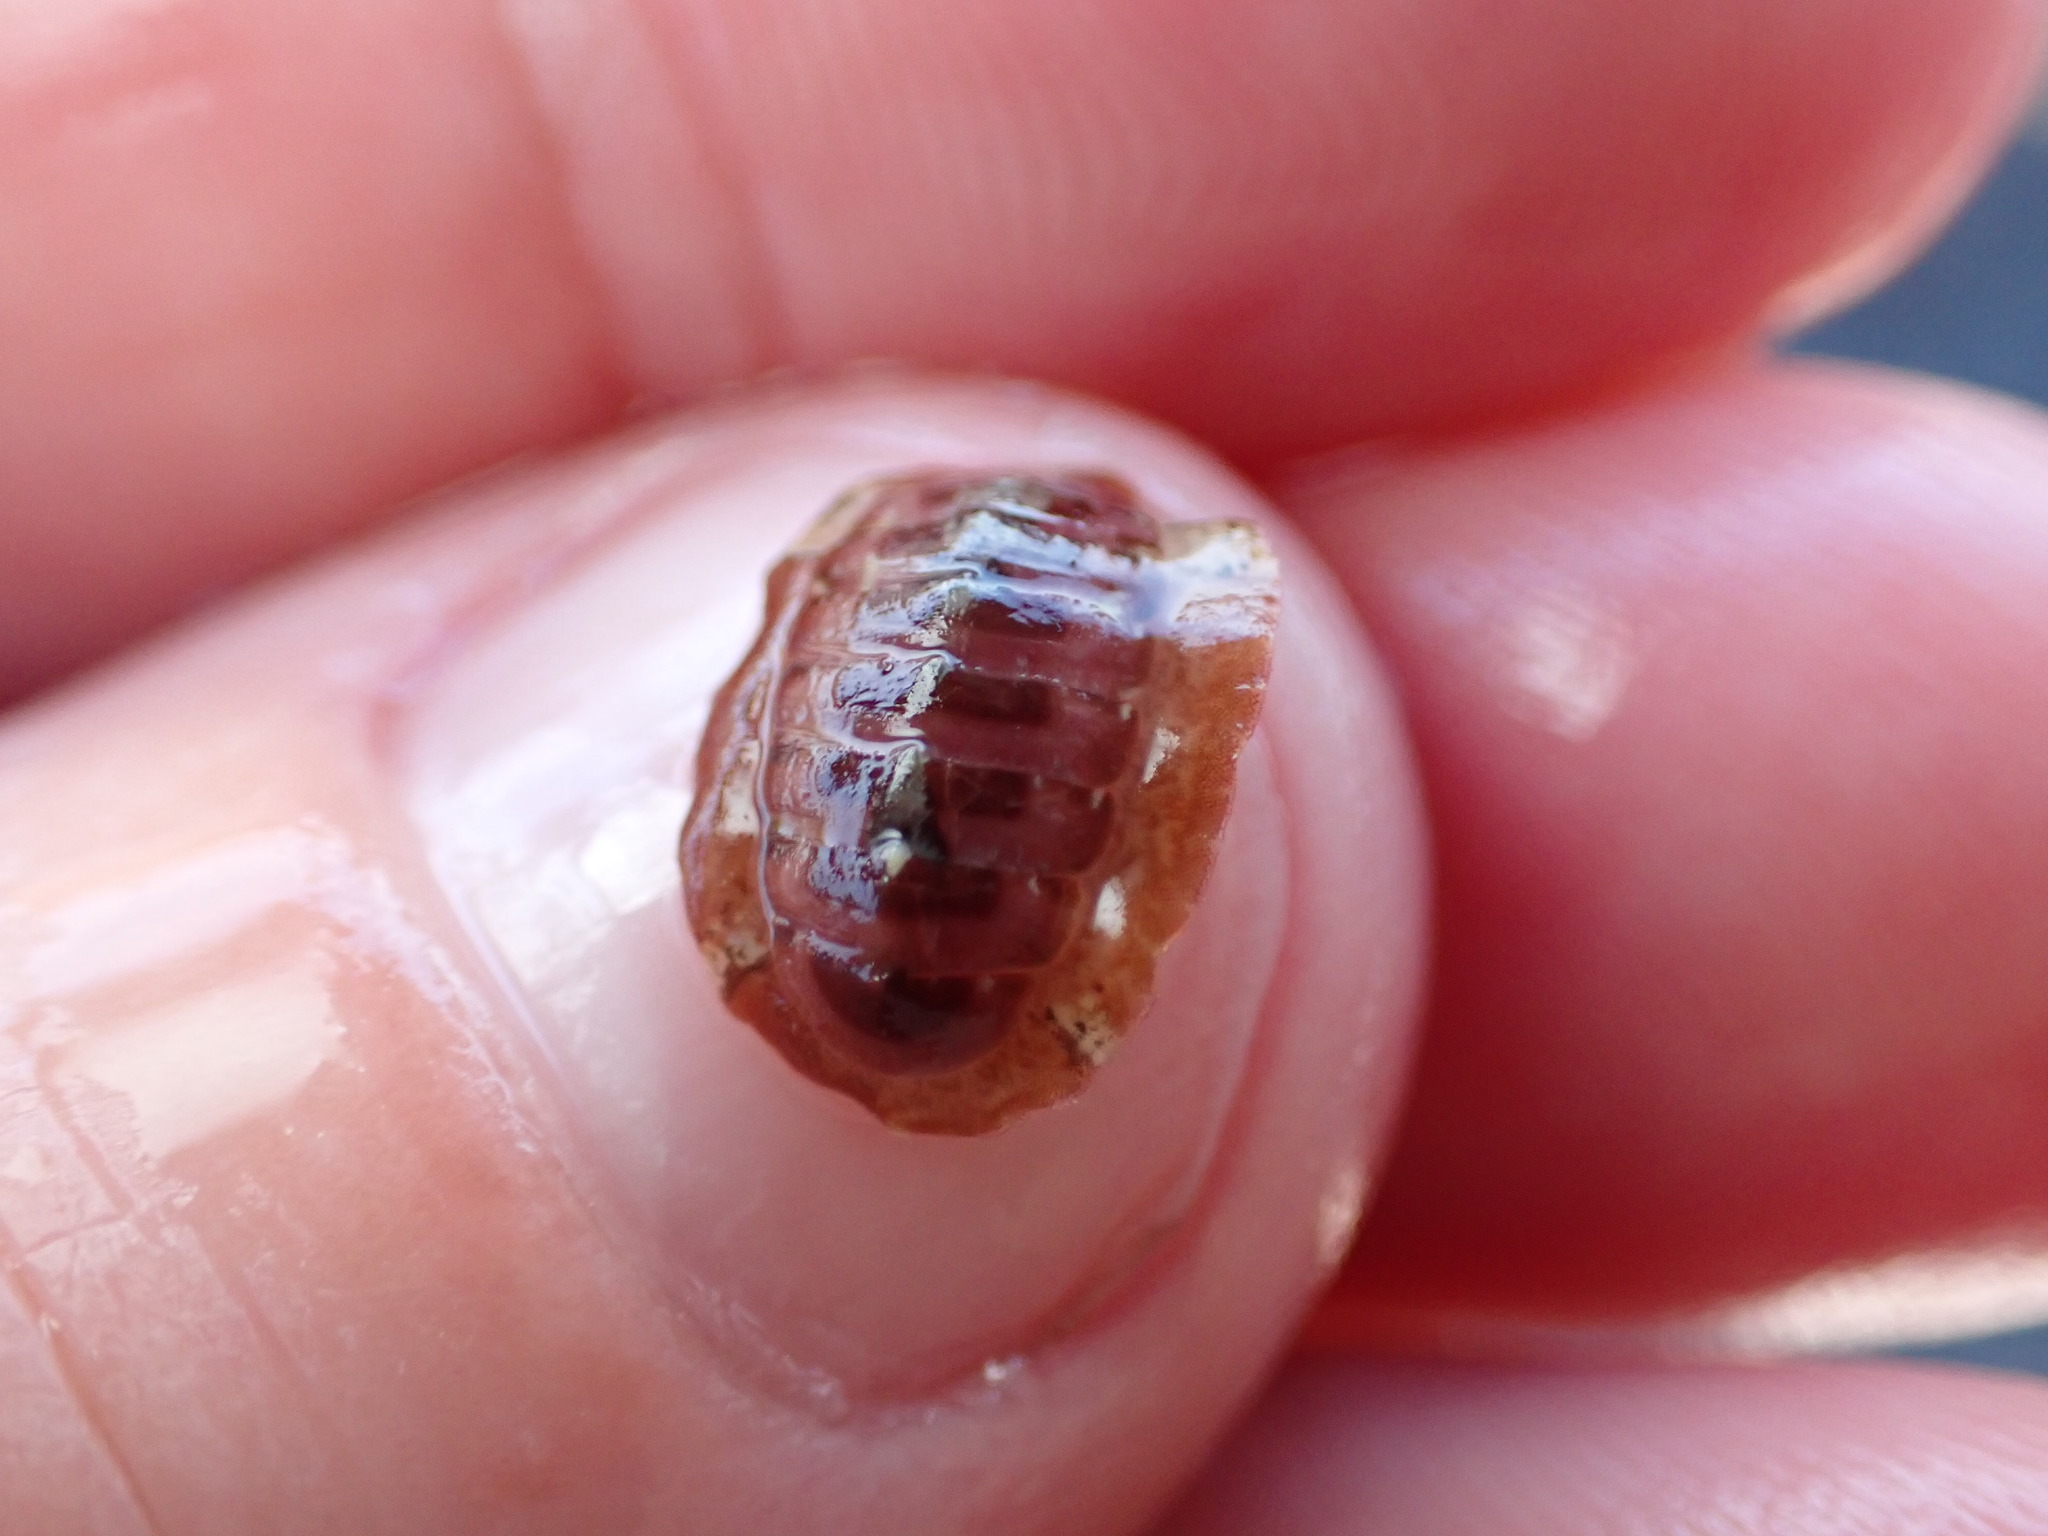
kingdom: Animalia
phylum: Mollusca
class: Polyplacophora
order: Callochitonida
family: Callochitonidae
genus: Eudoxochiton
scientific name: Eudoxochiton nobilis
